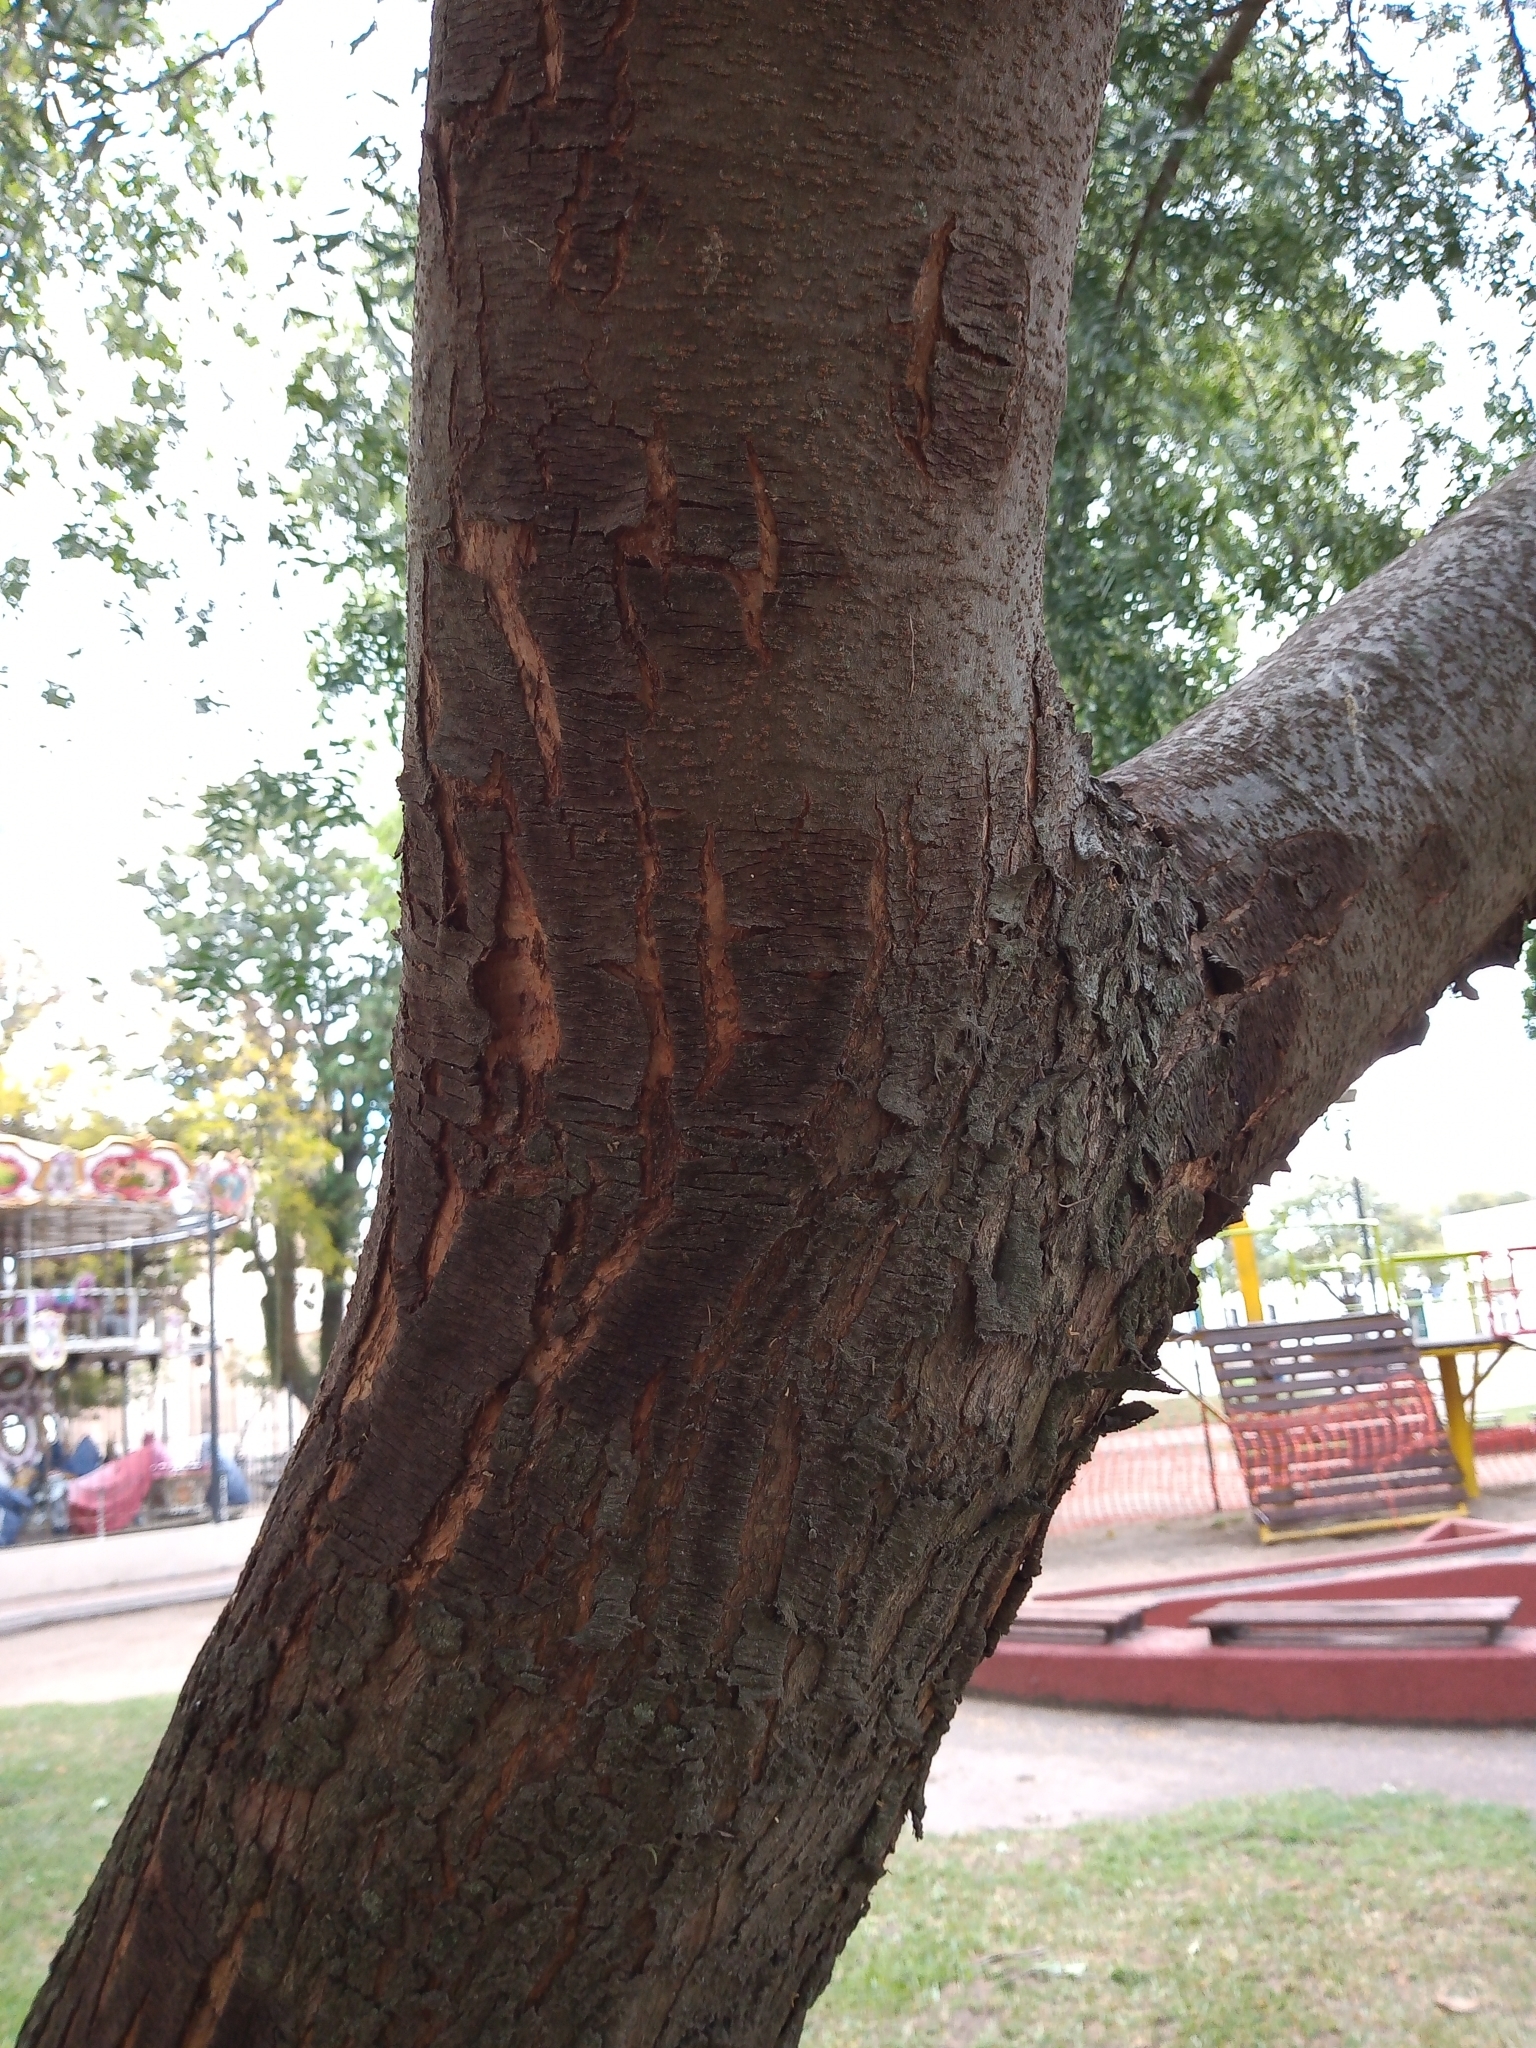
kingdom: Plantae
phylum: Tracheophyta
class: Magnoliopsida
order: Sapindales
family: Anacardiaceae
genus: Schinus
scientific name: Schinus areira
